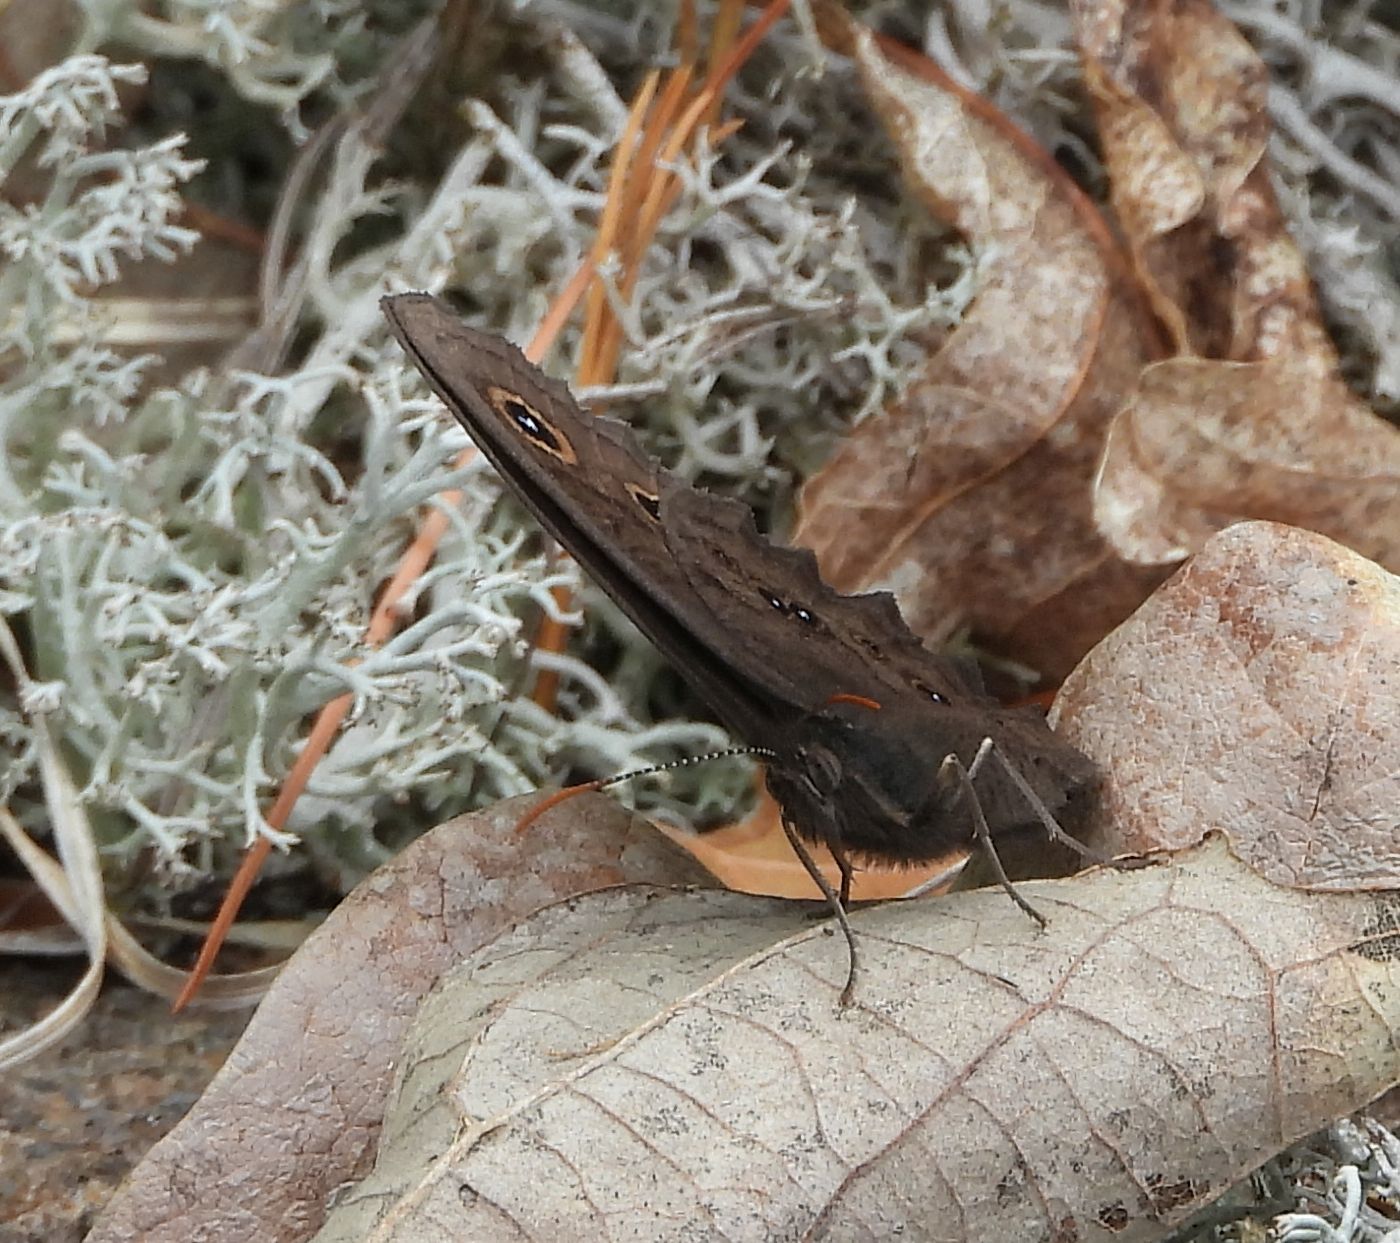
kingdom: Animalia
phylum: Arthropoda
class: Insecta
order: Lepidoptera
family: Nymphalidae
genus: Cercyonis
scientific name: Cercyonis pegala
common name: Common wood-nymph
